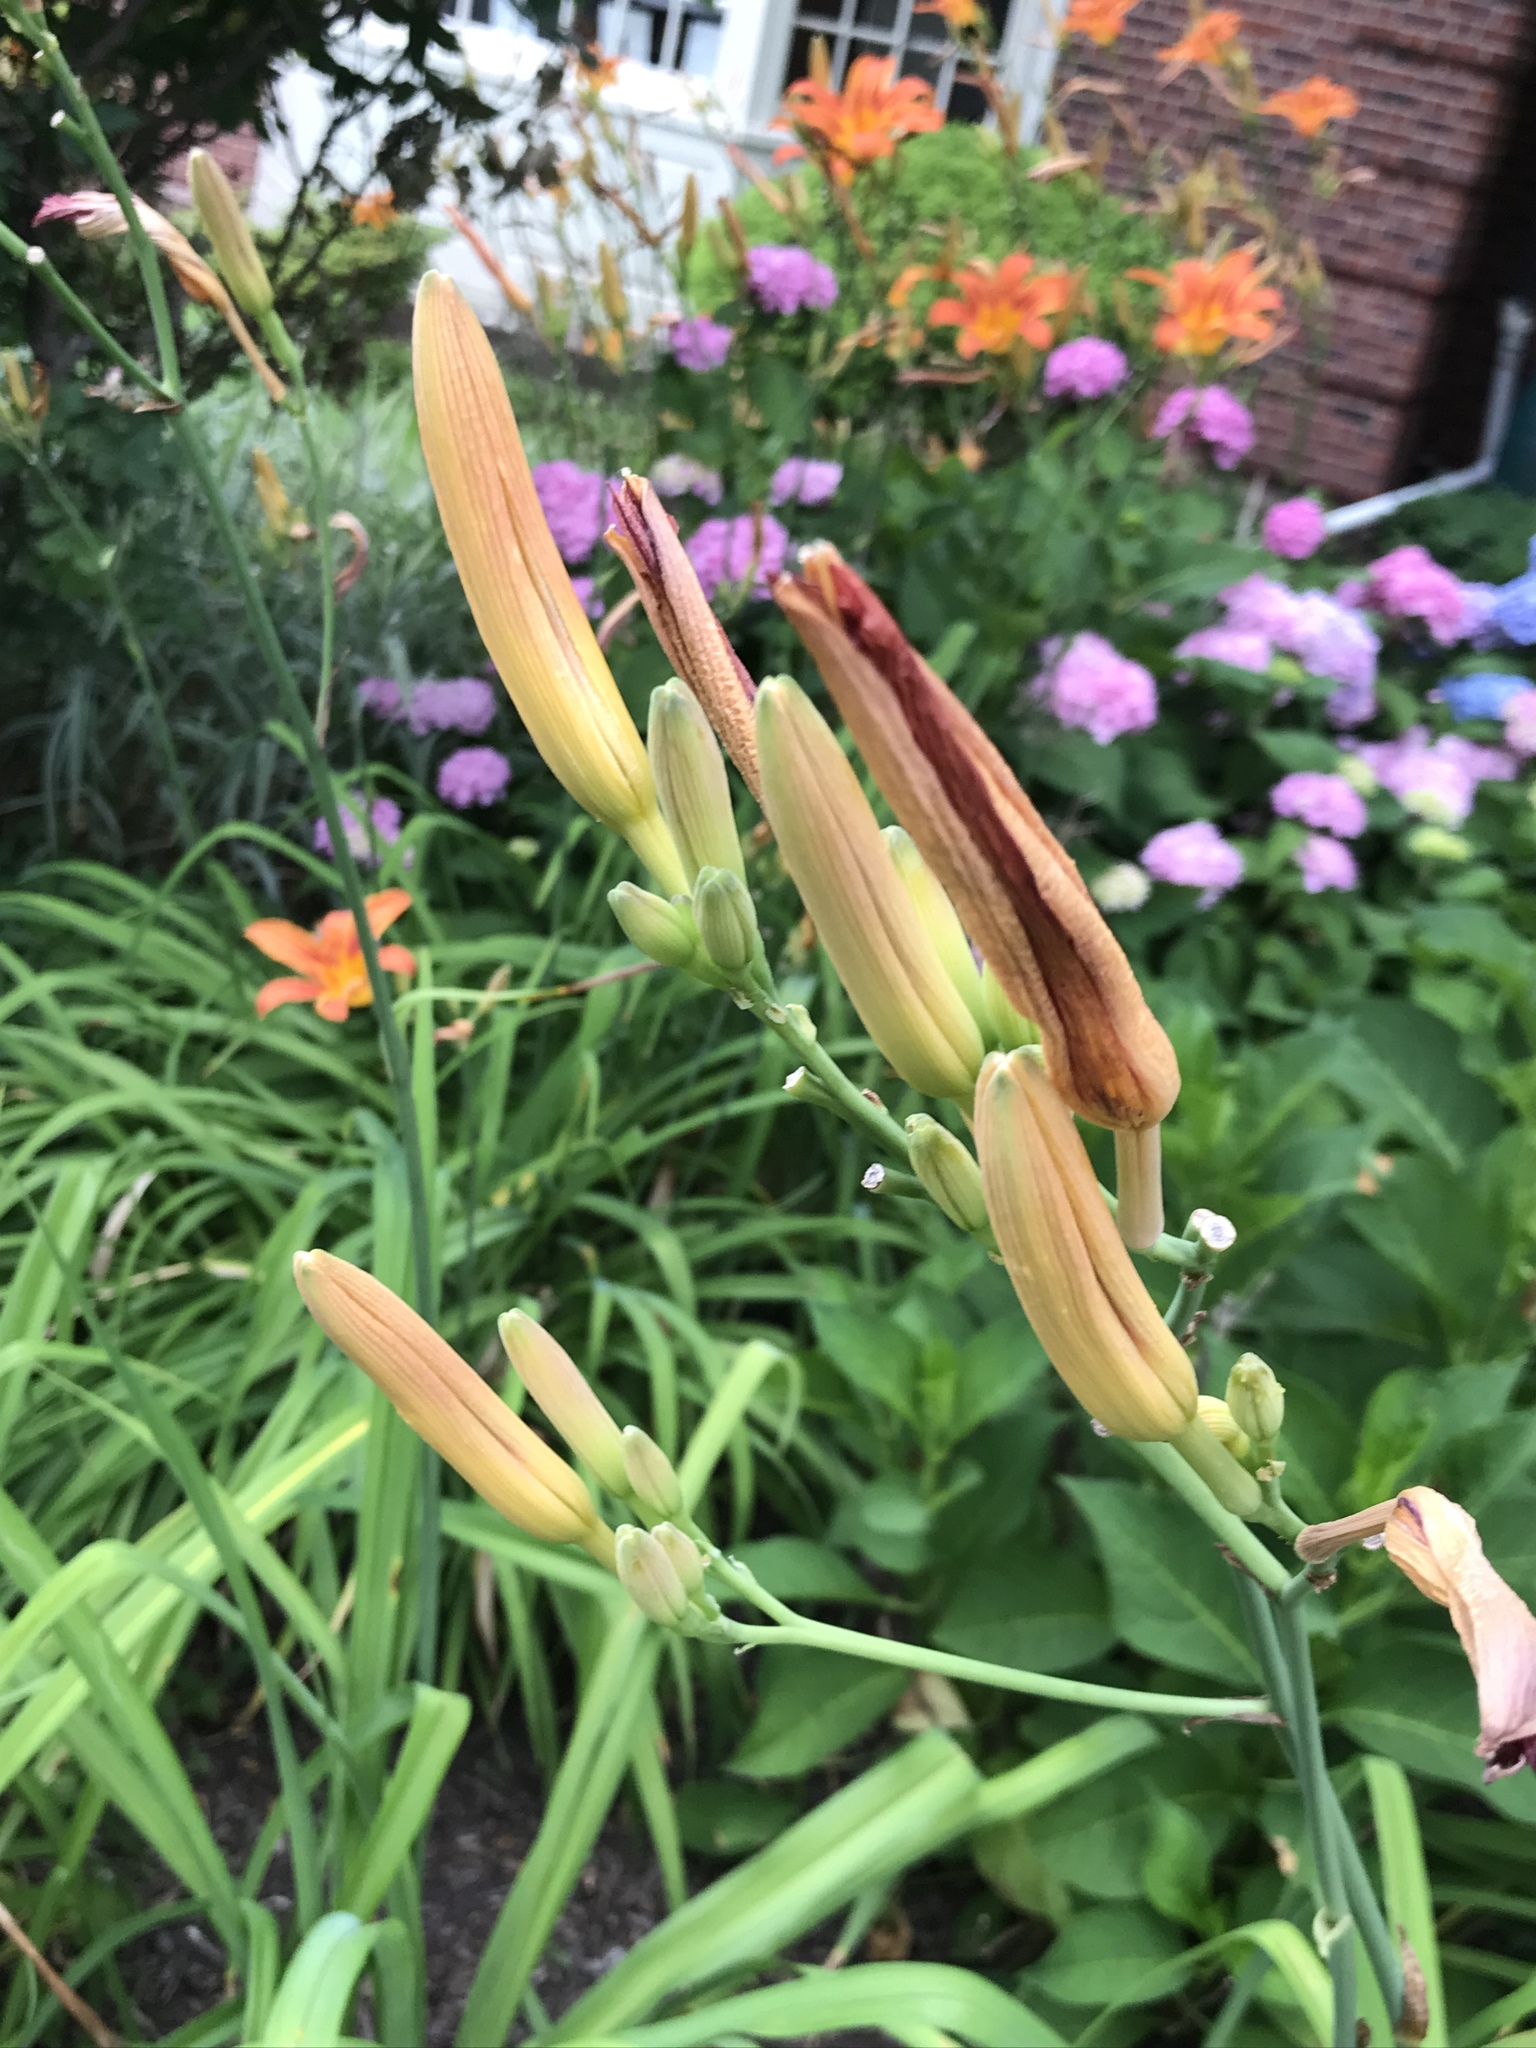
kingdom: Plantae
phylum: Tracheophyta
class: Liliopsida
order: Asparagales
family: Asphodelaceae
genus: Hemerocallis
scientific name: Hemerocallis fulva
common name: Orange day-lily
